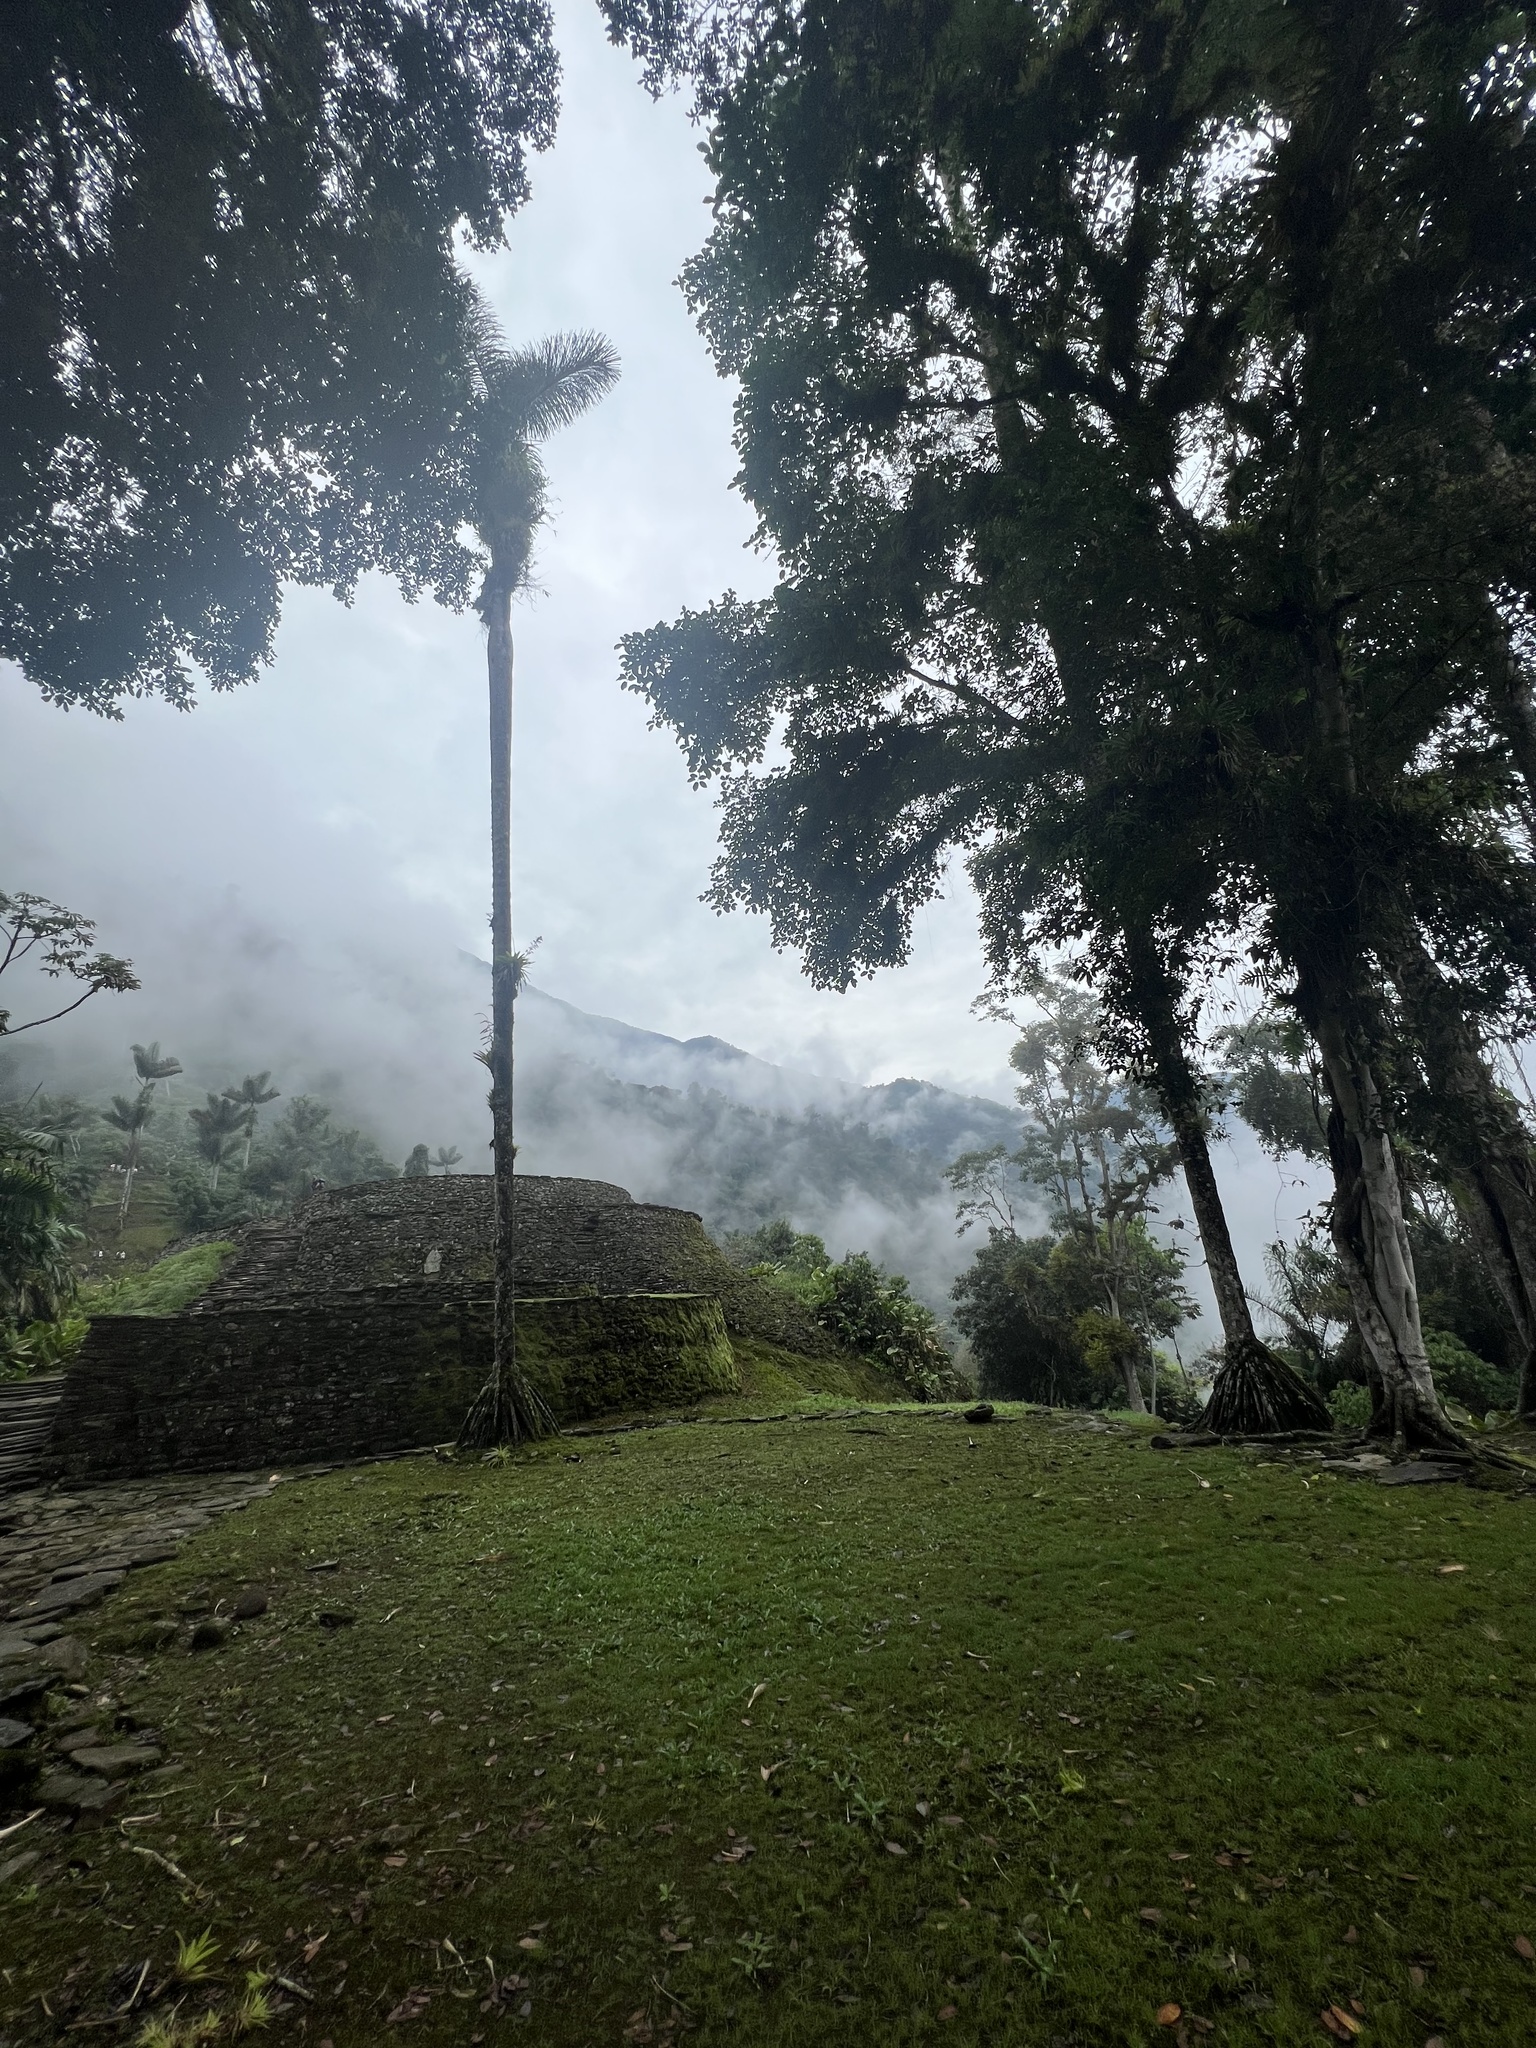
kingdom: Plantae
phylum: Tracheophyta
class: Liliopsida
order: Arecales
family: Arecaceae
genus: Socratea
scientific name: Socratea exorrhiza
